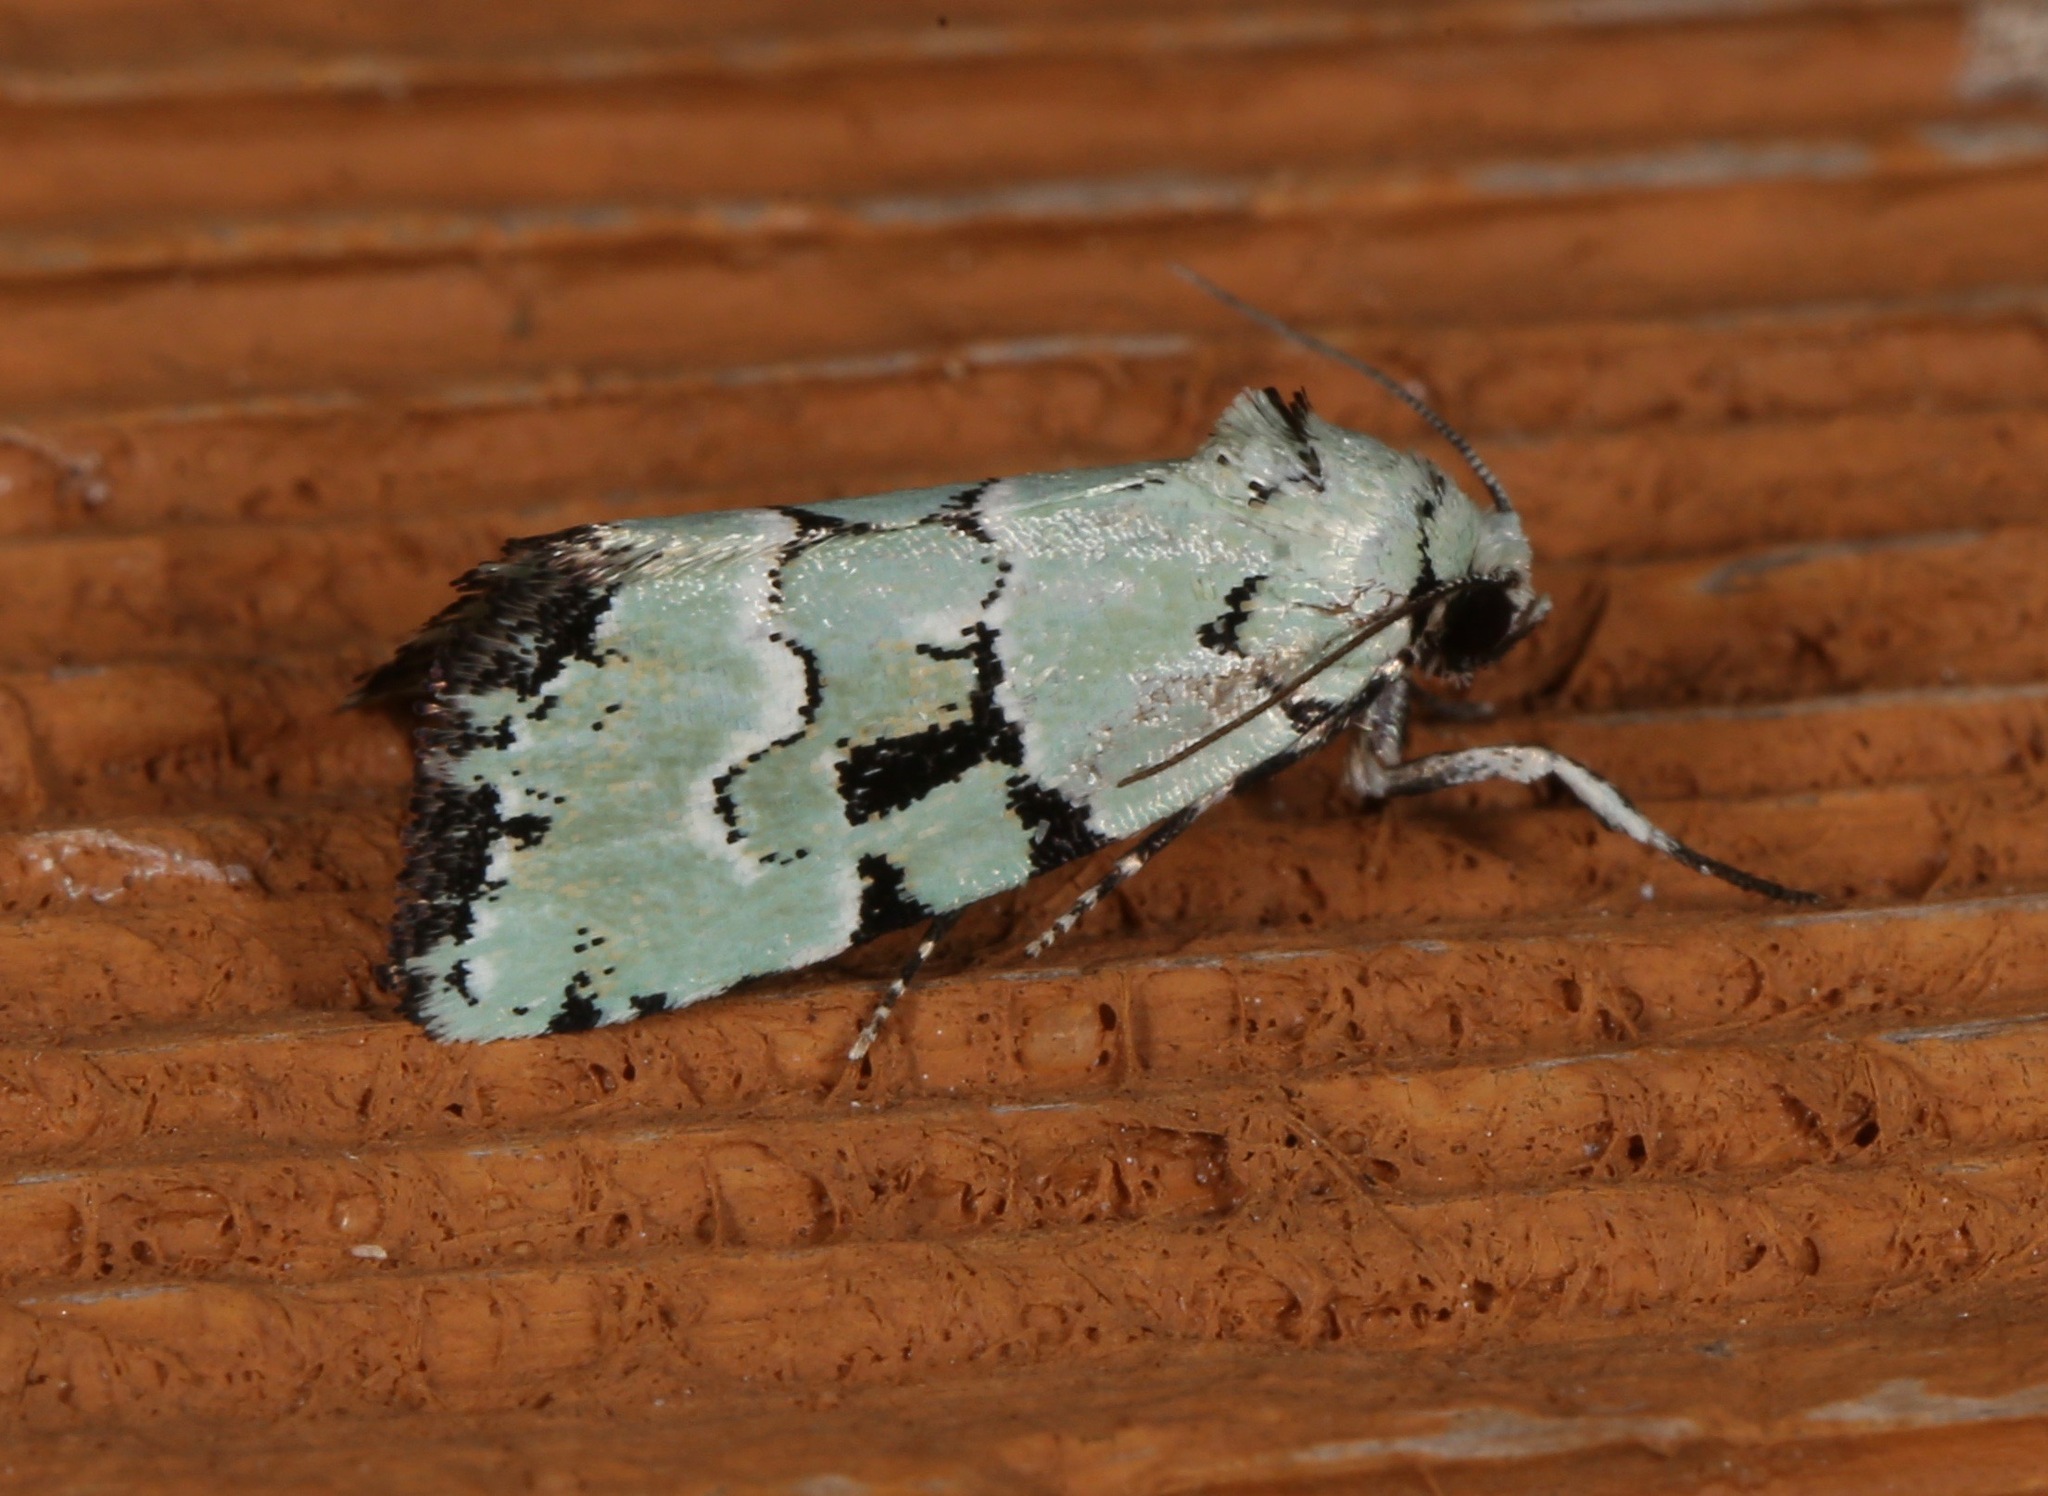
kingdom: Animalia
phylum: Arthropoda
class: Insecta
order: Lepidoptera
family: Noctuidae
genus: Elaphria
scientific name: Elaphria cyanympha
